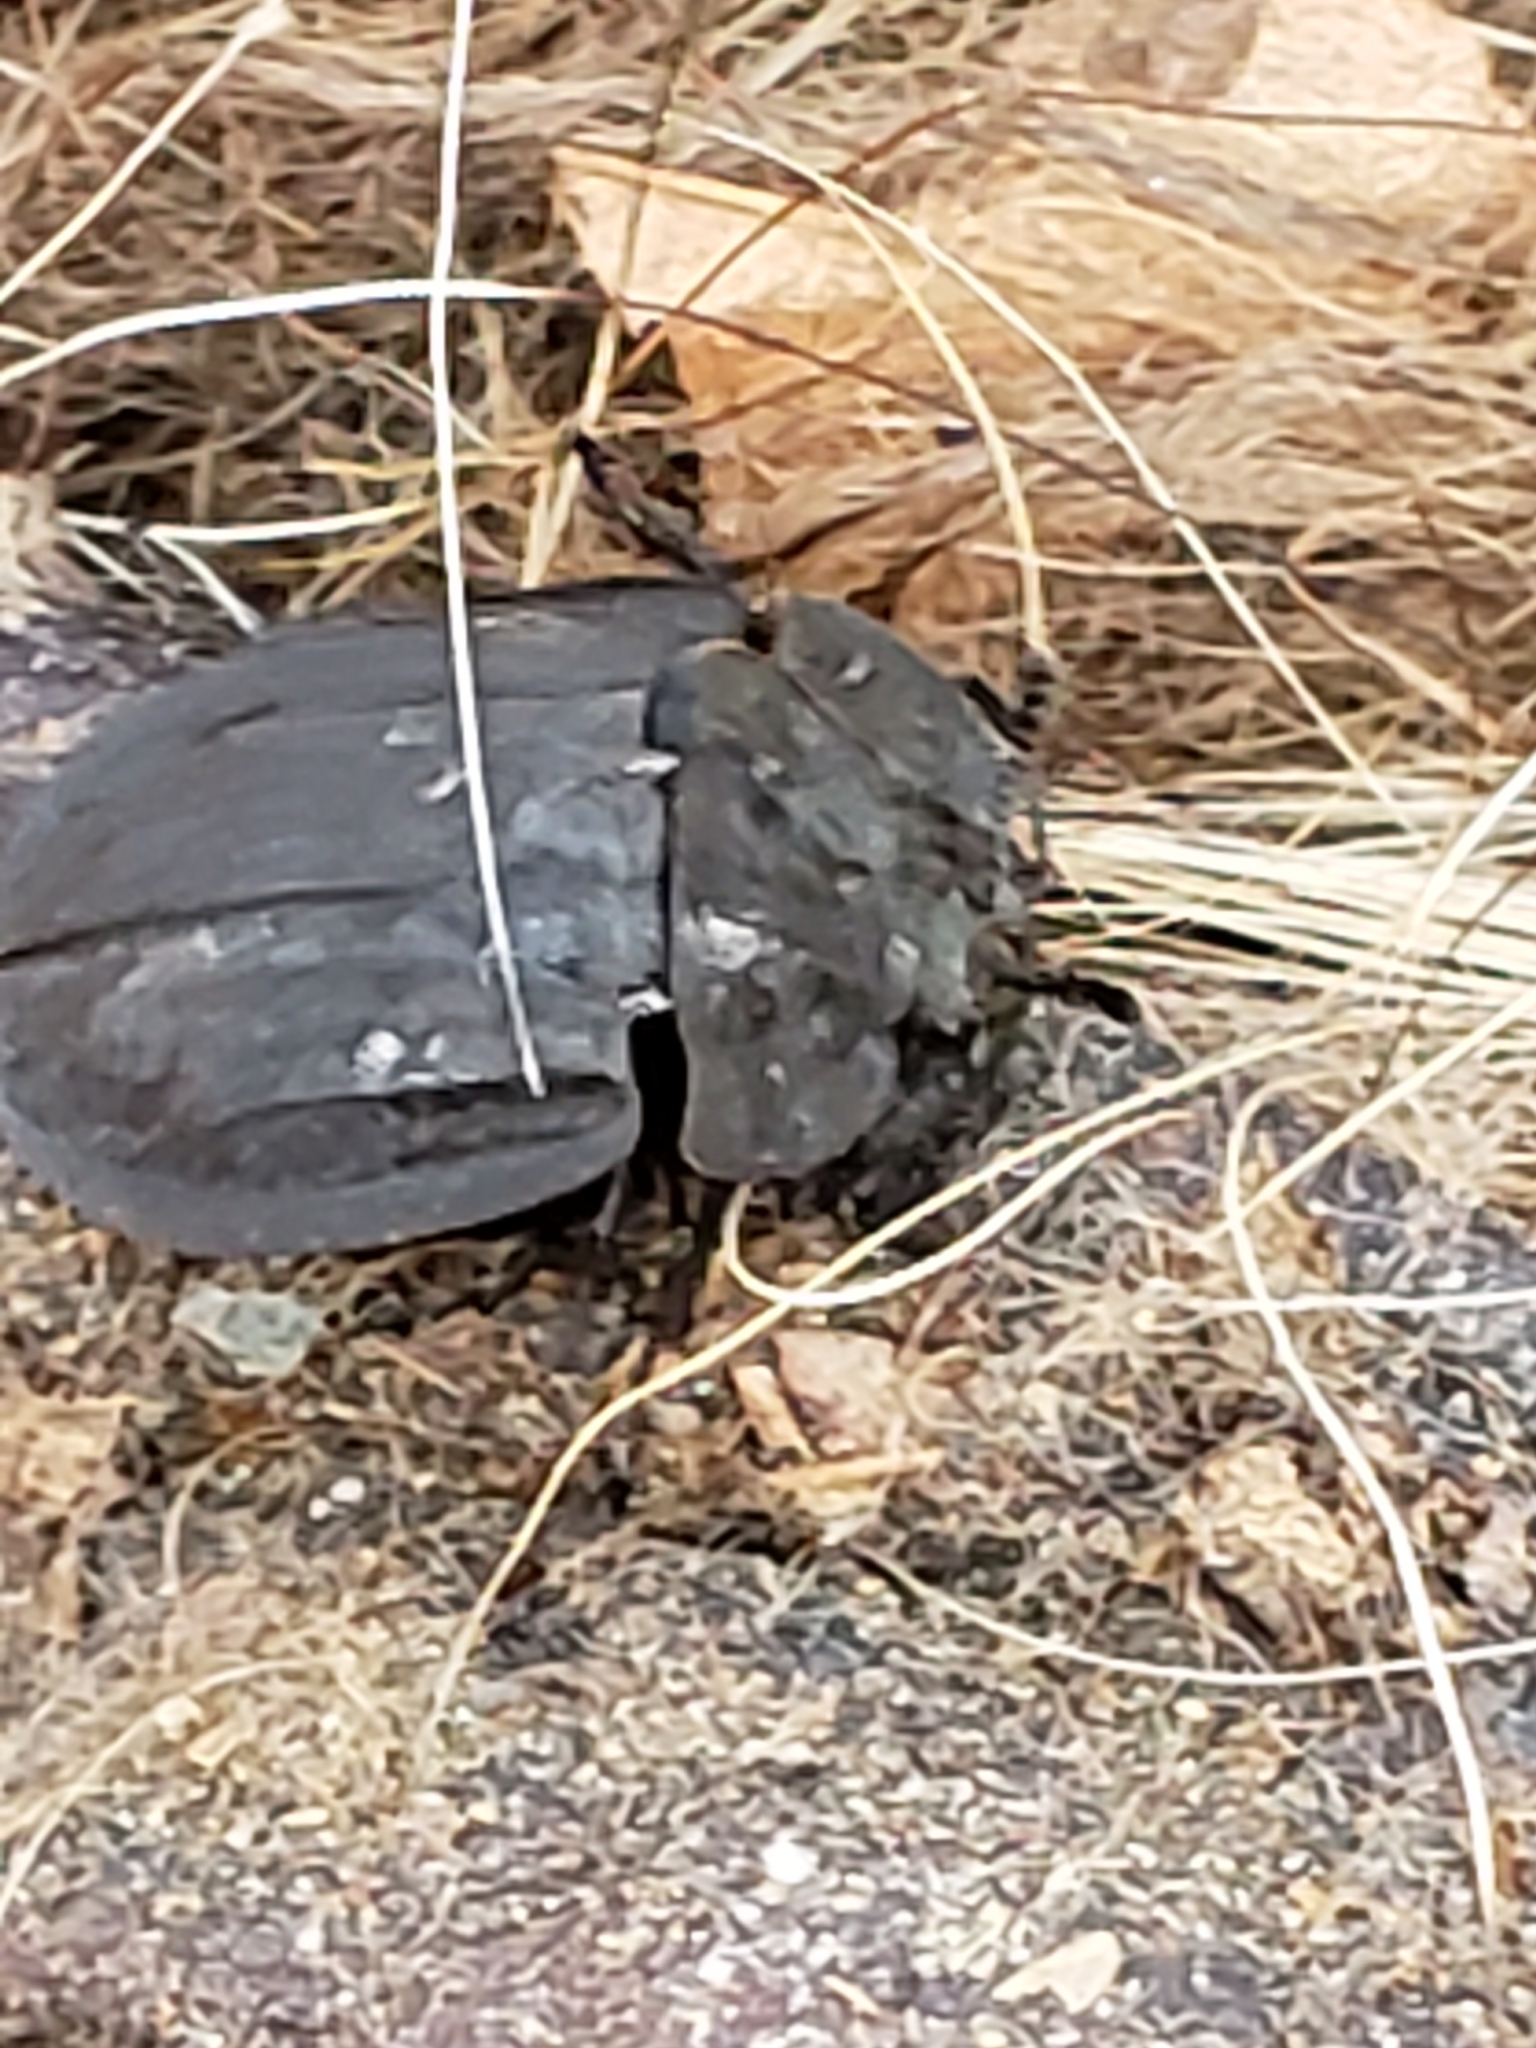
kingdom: Animalia
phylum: Arthropoda
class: Insecta
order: Coleoptera
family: Staphylinidae
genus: Oiceoptoma
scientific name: Oiceoptoma inaequale
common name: Ridged carrion beetle
